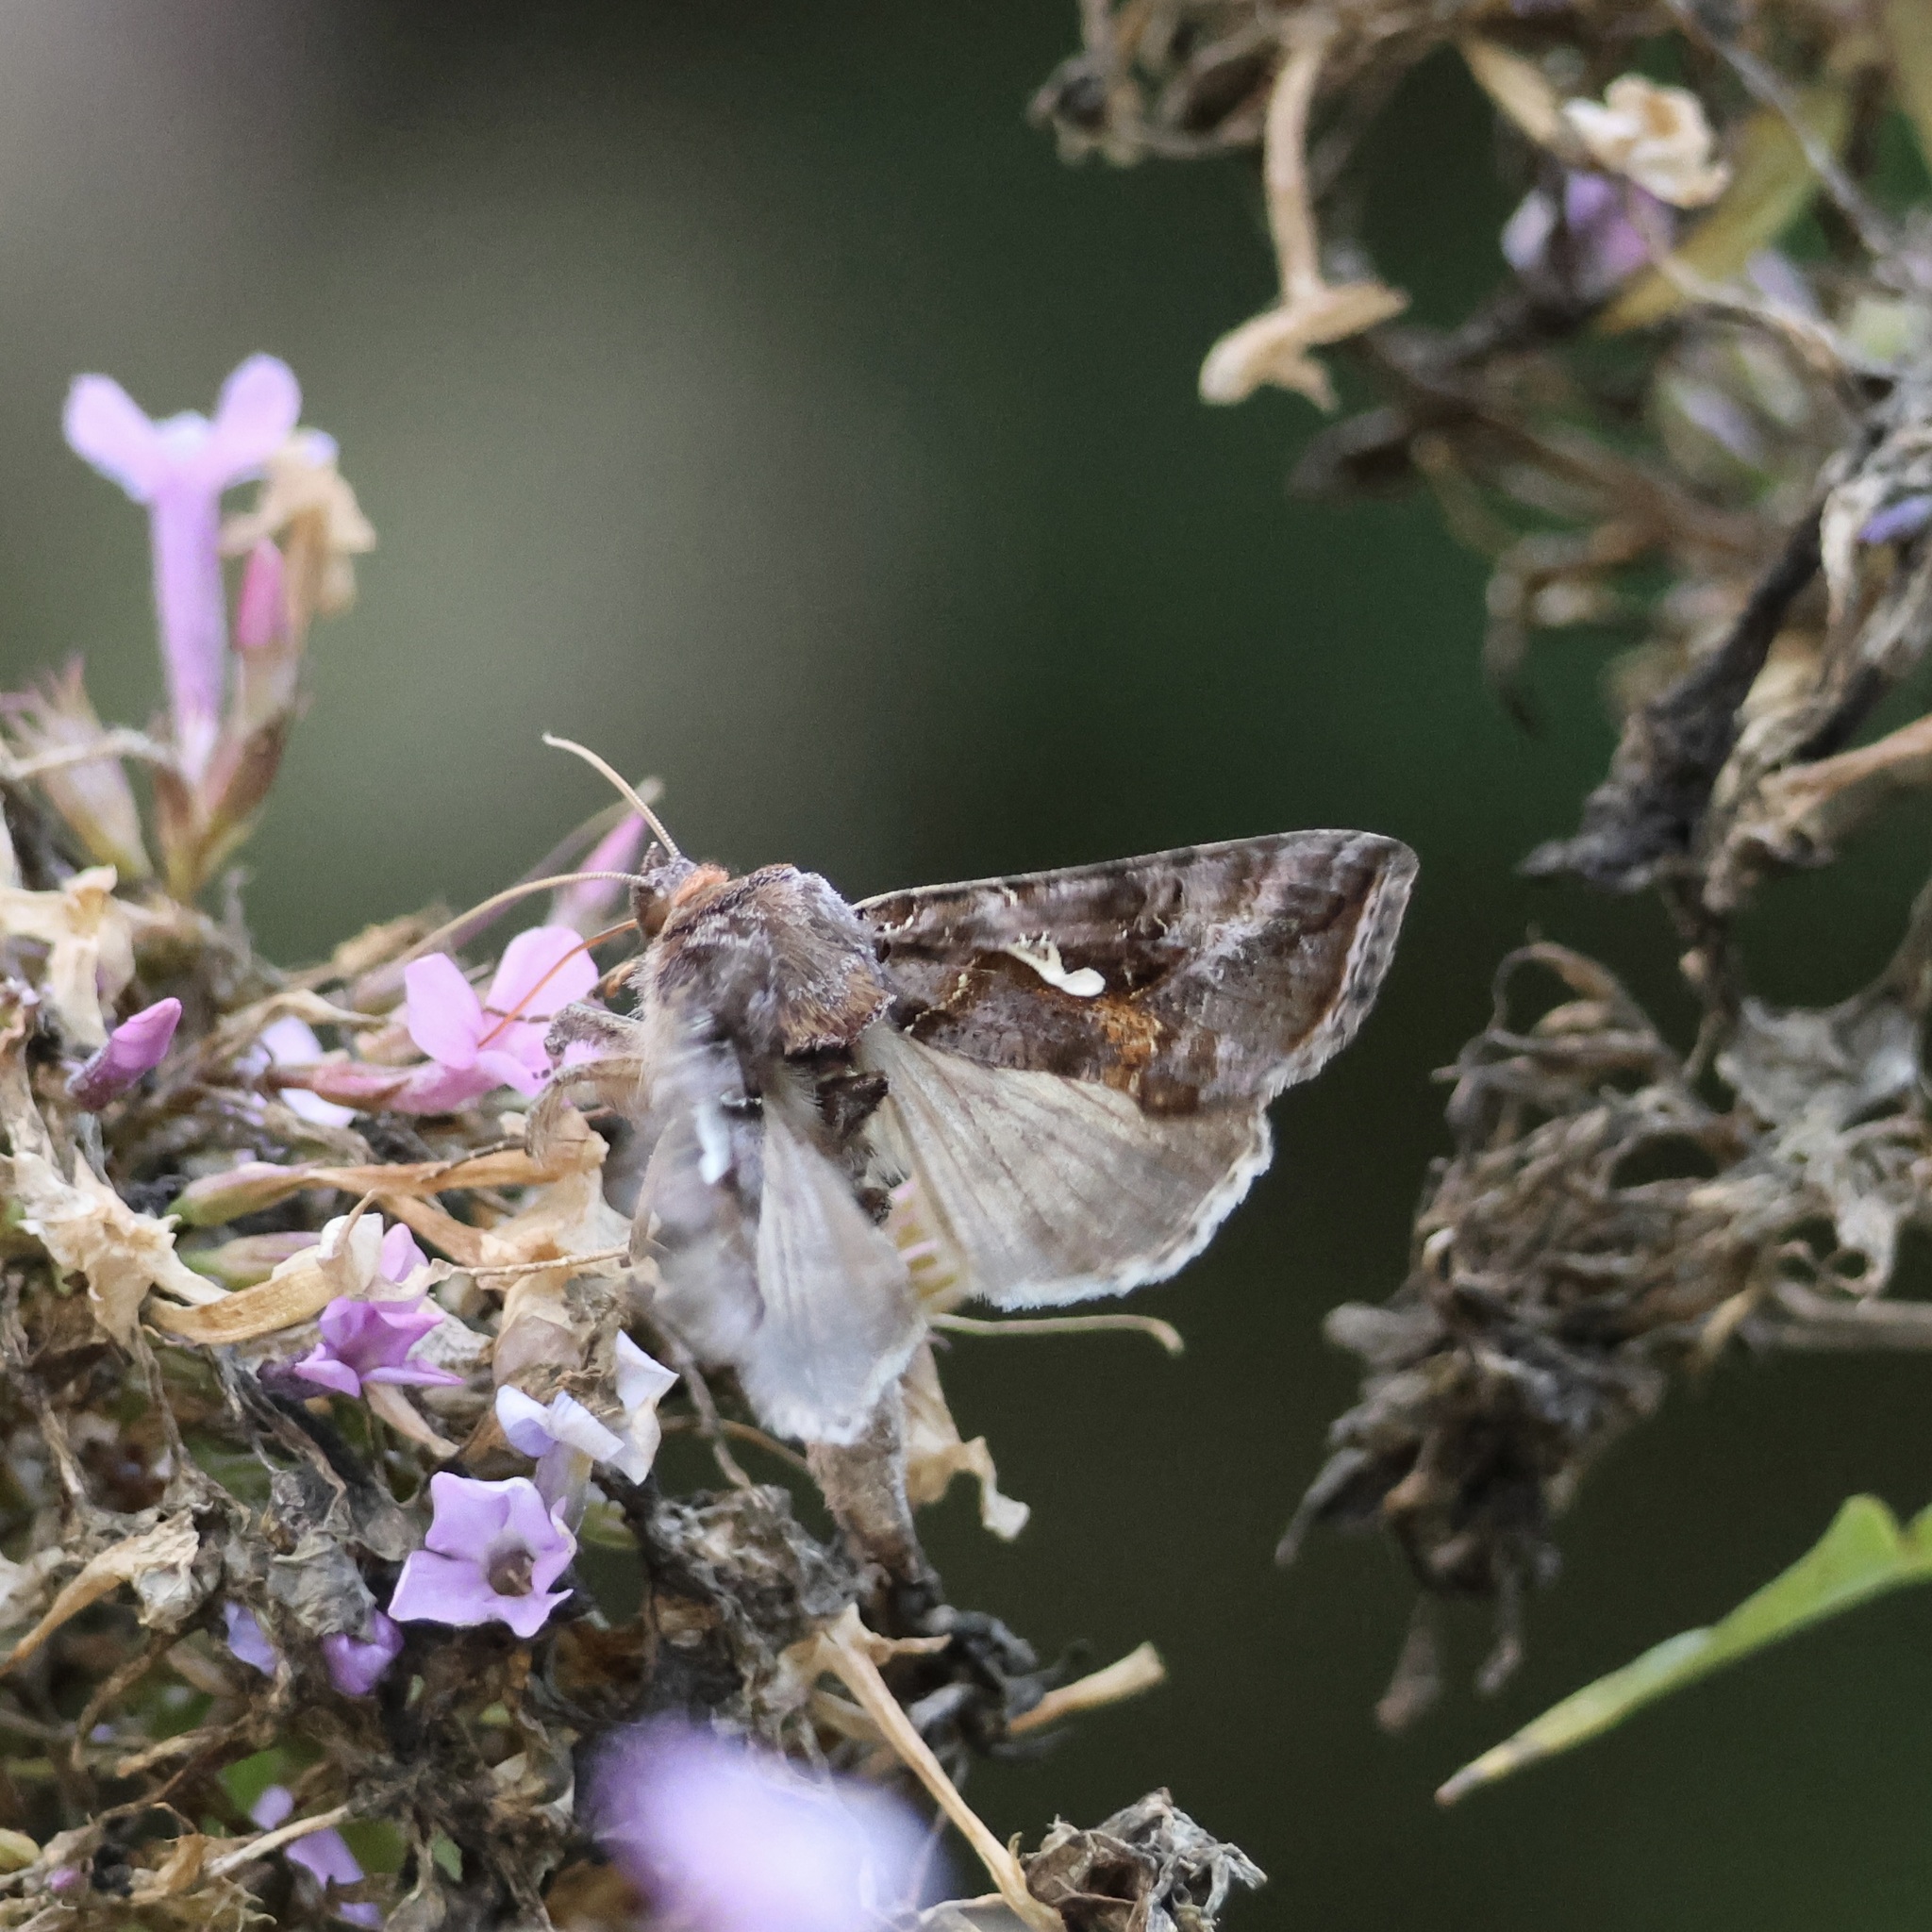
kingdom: Animalia
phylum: Arthropoda
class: Insecta
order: Lepidoptera
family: Noctuidae
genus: Autographa
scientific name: Autographa precationis
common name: Common looper moth
